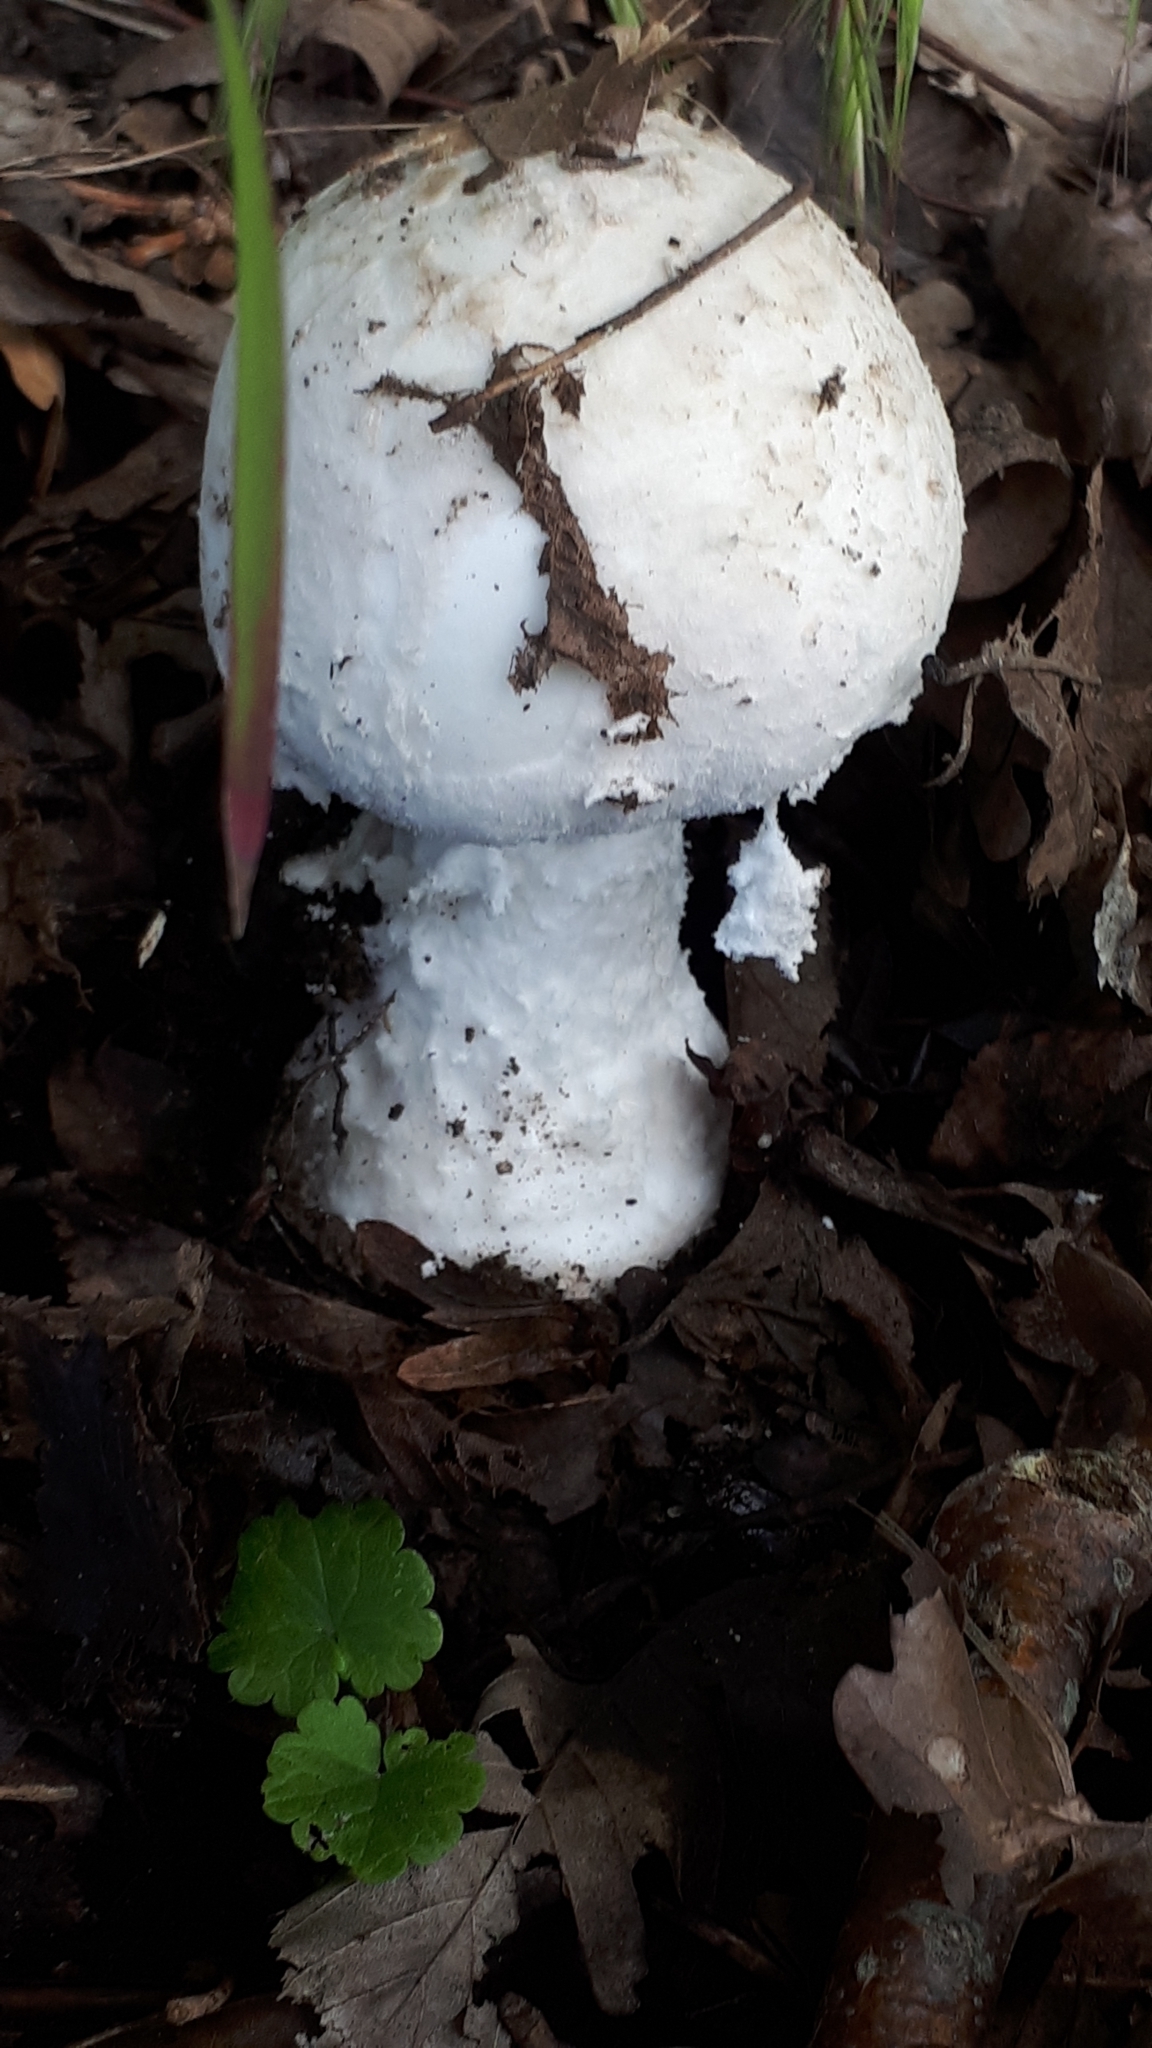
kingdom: Fungi
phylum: Basidiomycota
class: Agaricomycetes
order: Agaricales
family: Amanitaceae
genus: Amanita
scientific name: Amanita strobiliformis
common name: Warted amanita
